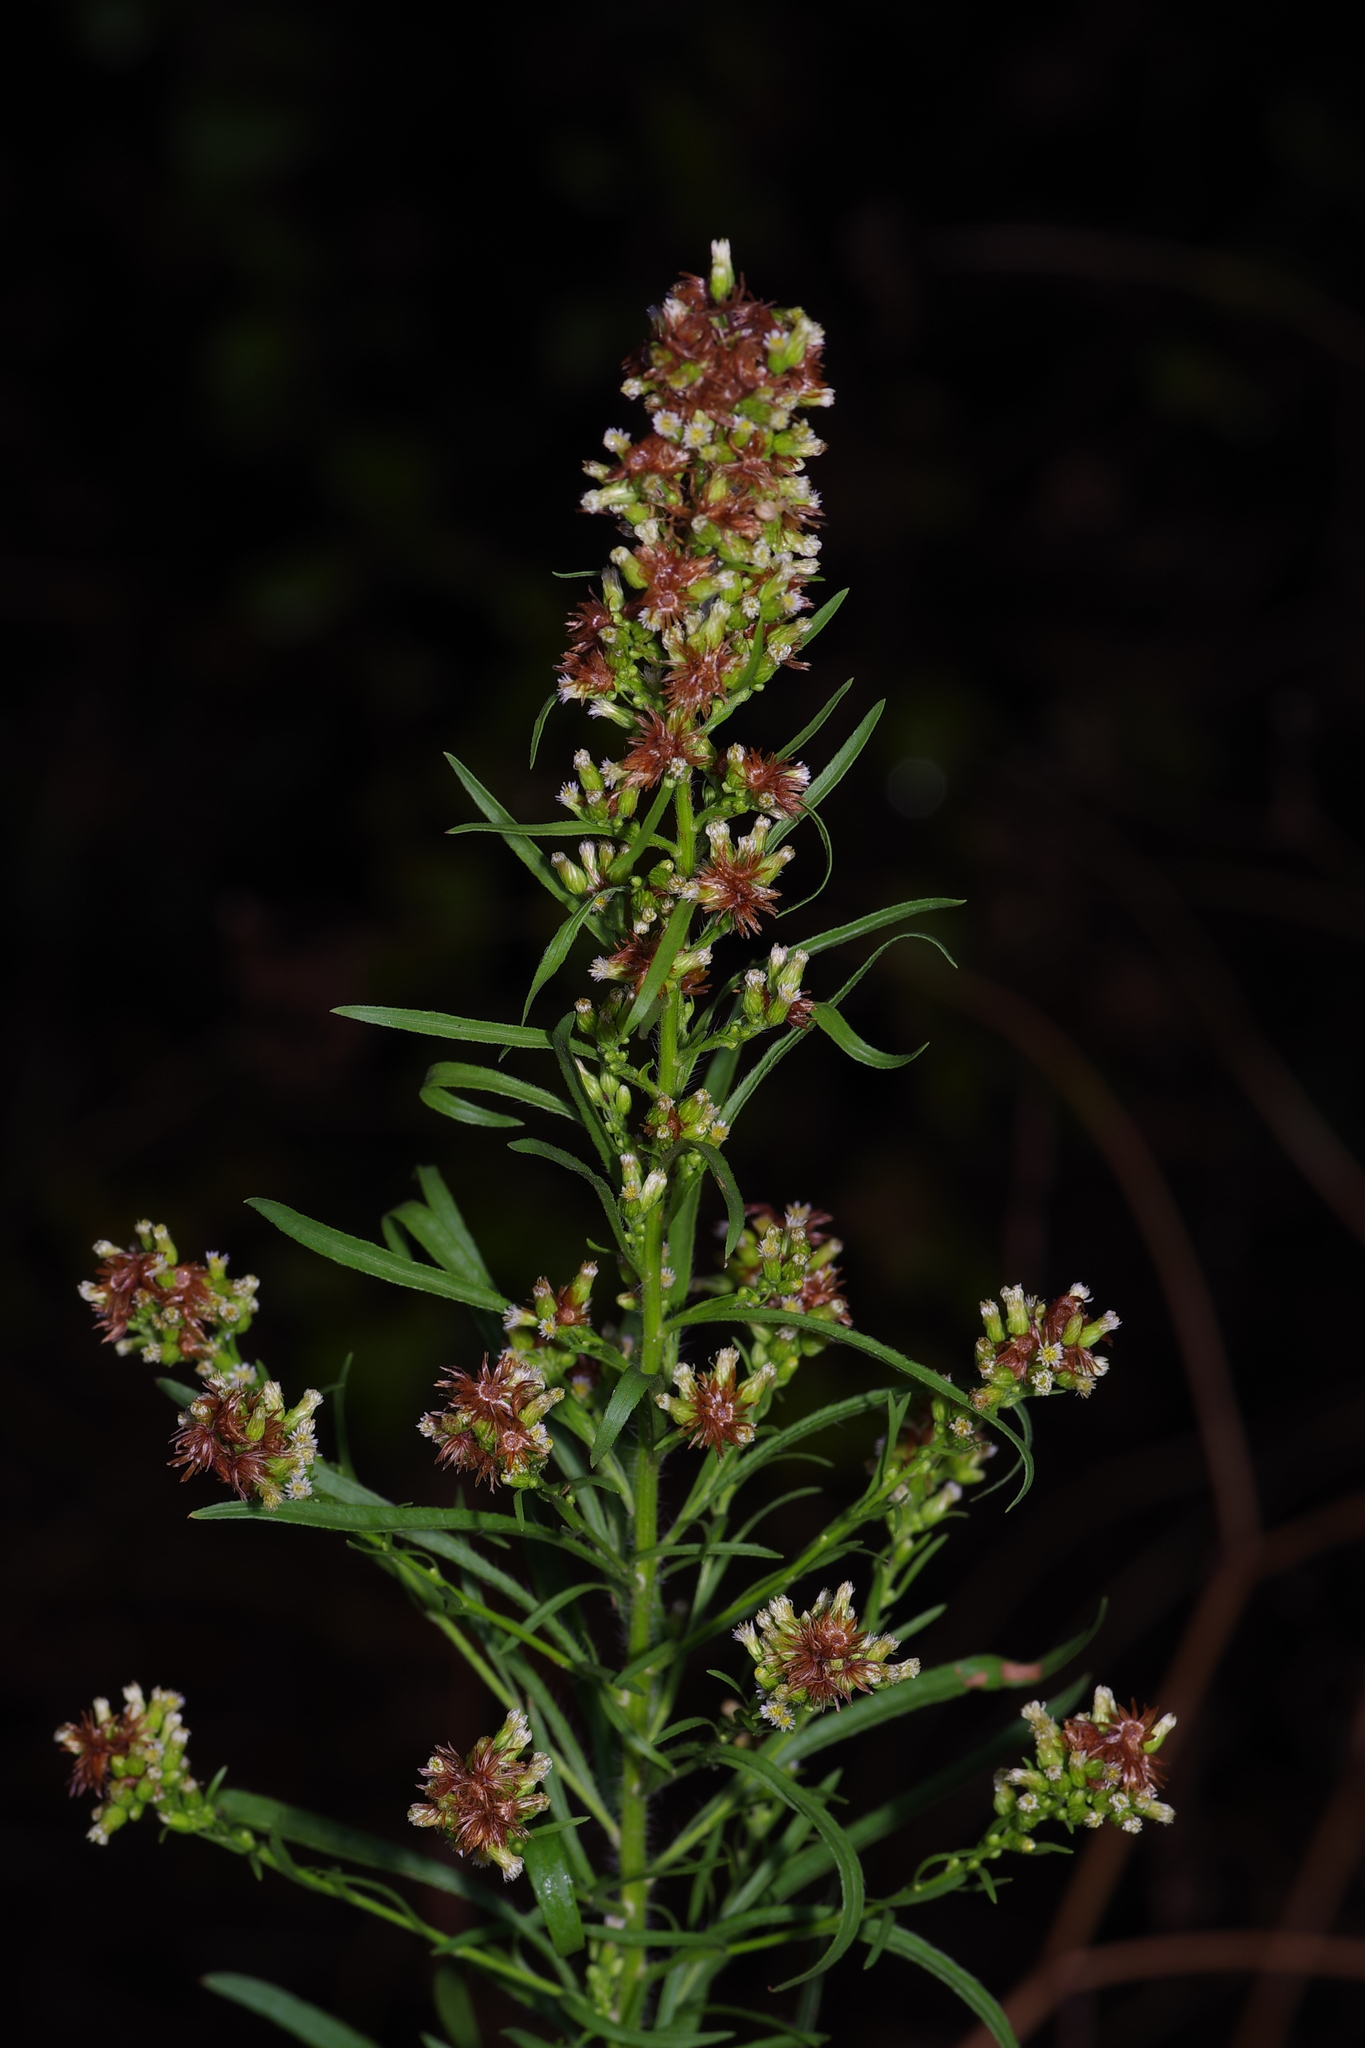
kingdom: Plantae
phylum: Tracheophyta
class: Magnoliopsida
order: Asterales
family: Asteraceae
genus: Erigeron
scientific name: Erigeron canadensis
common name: Canadian fleabane
